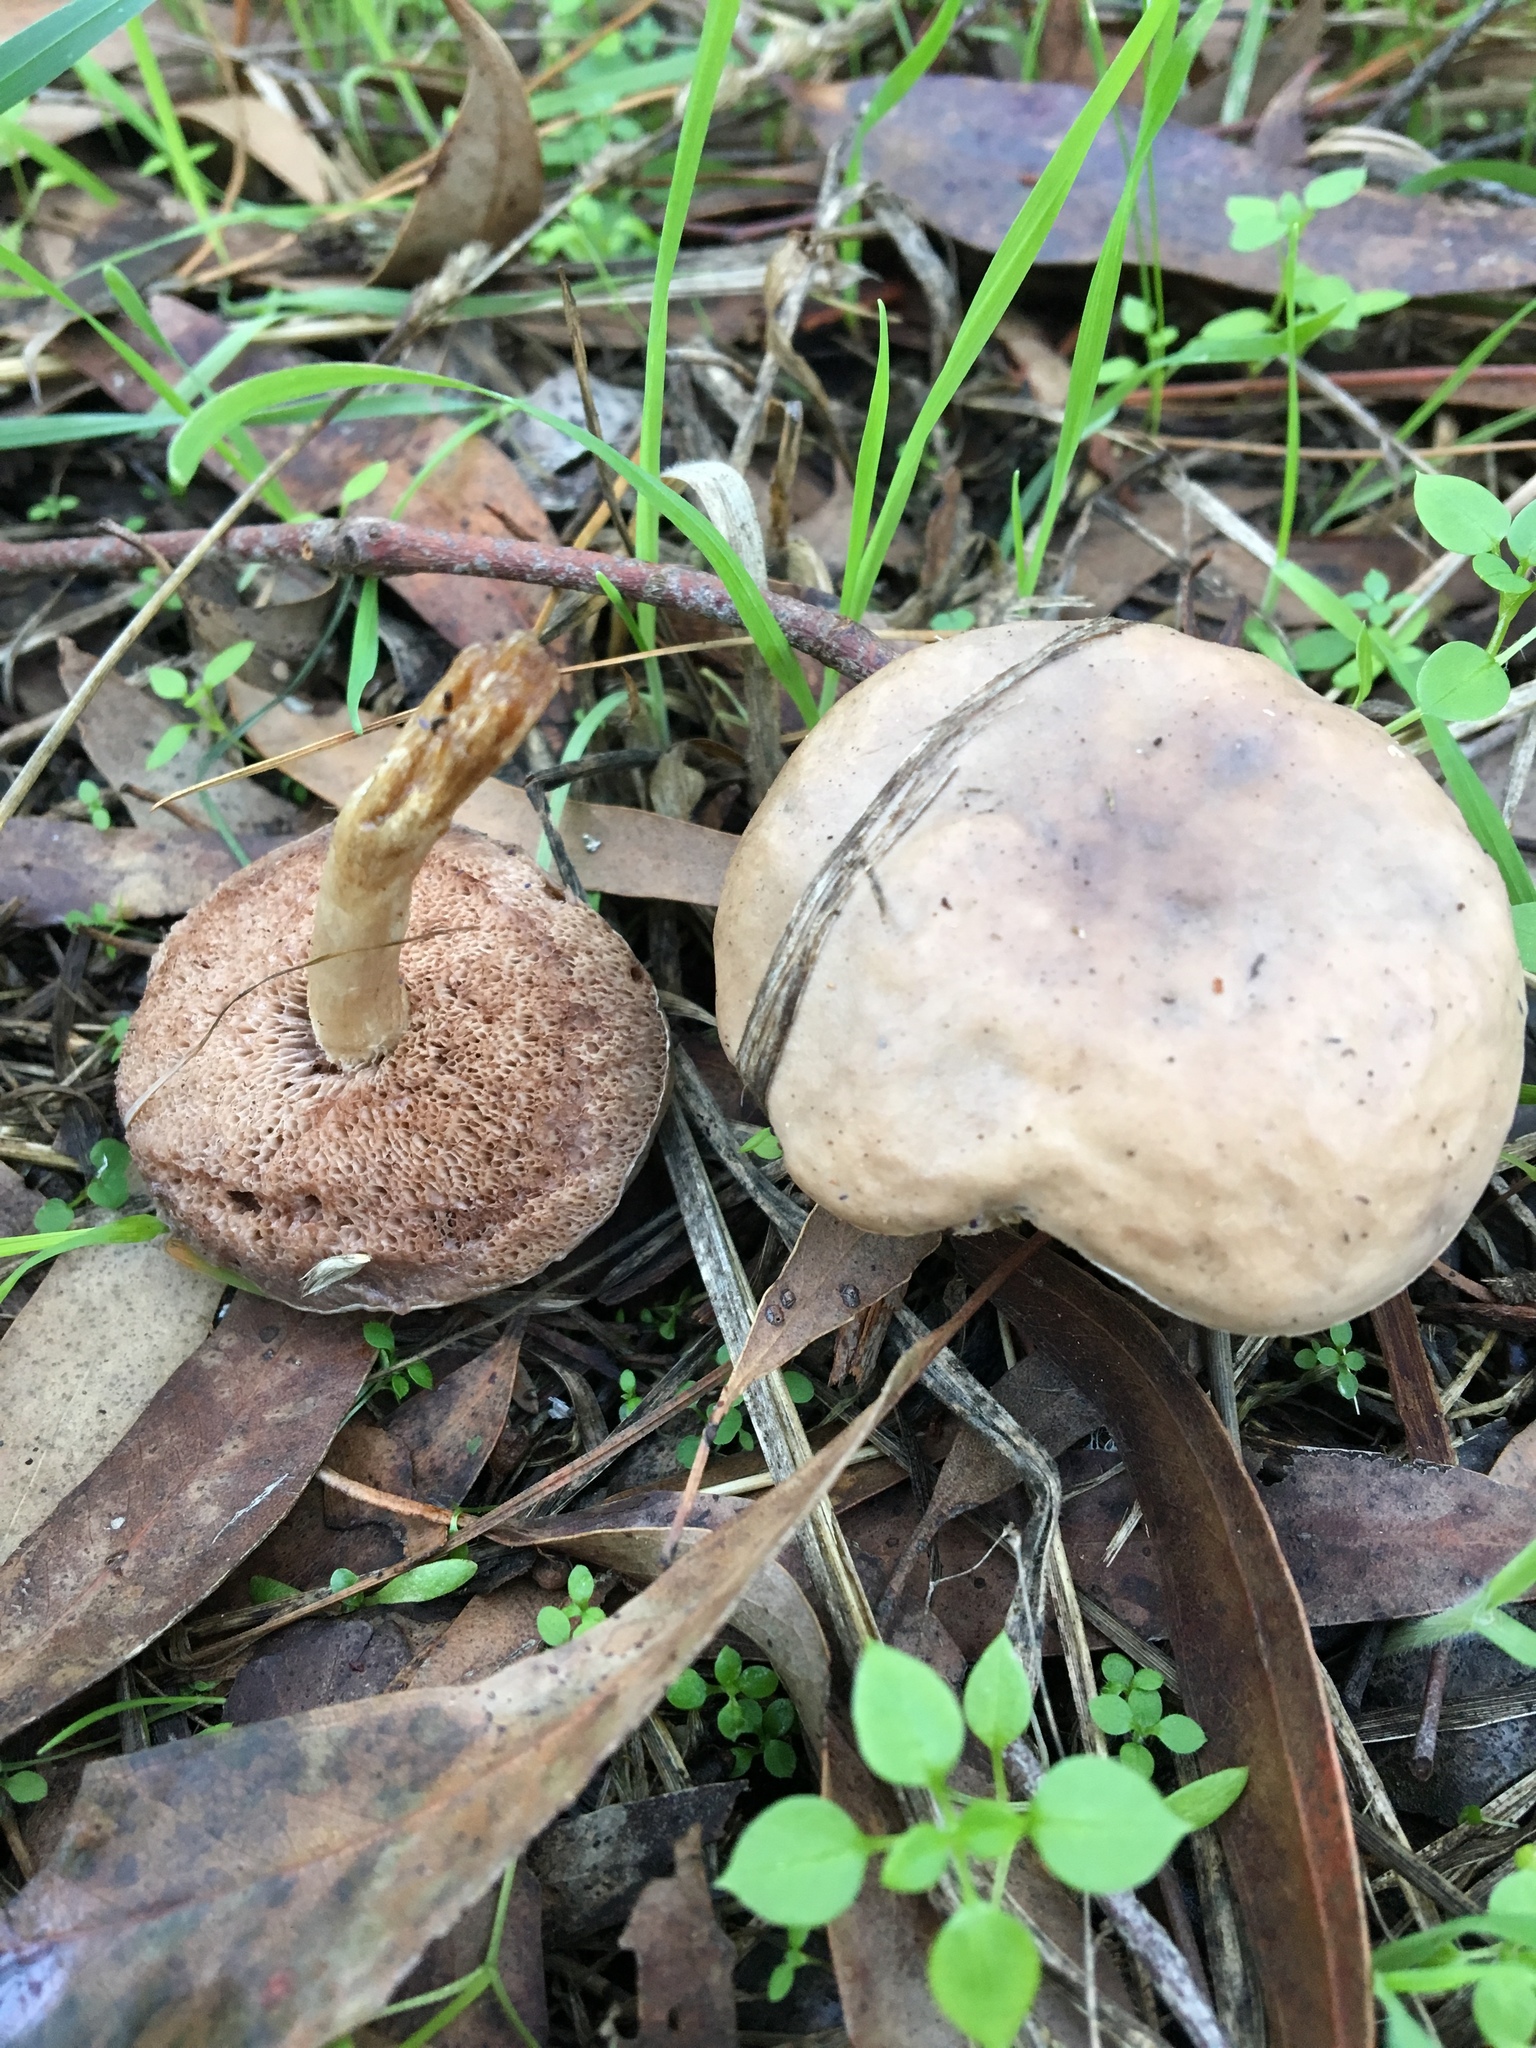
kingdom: Fungi
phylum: Basidiomycota
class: Agaricomycetes
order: Boletales
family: Boletaceae
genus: Fistulinella
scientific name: Fistulinella mollis
